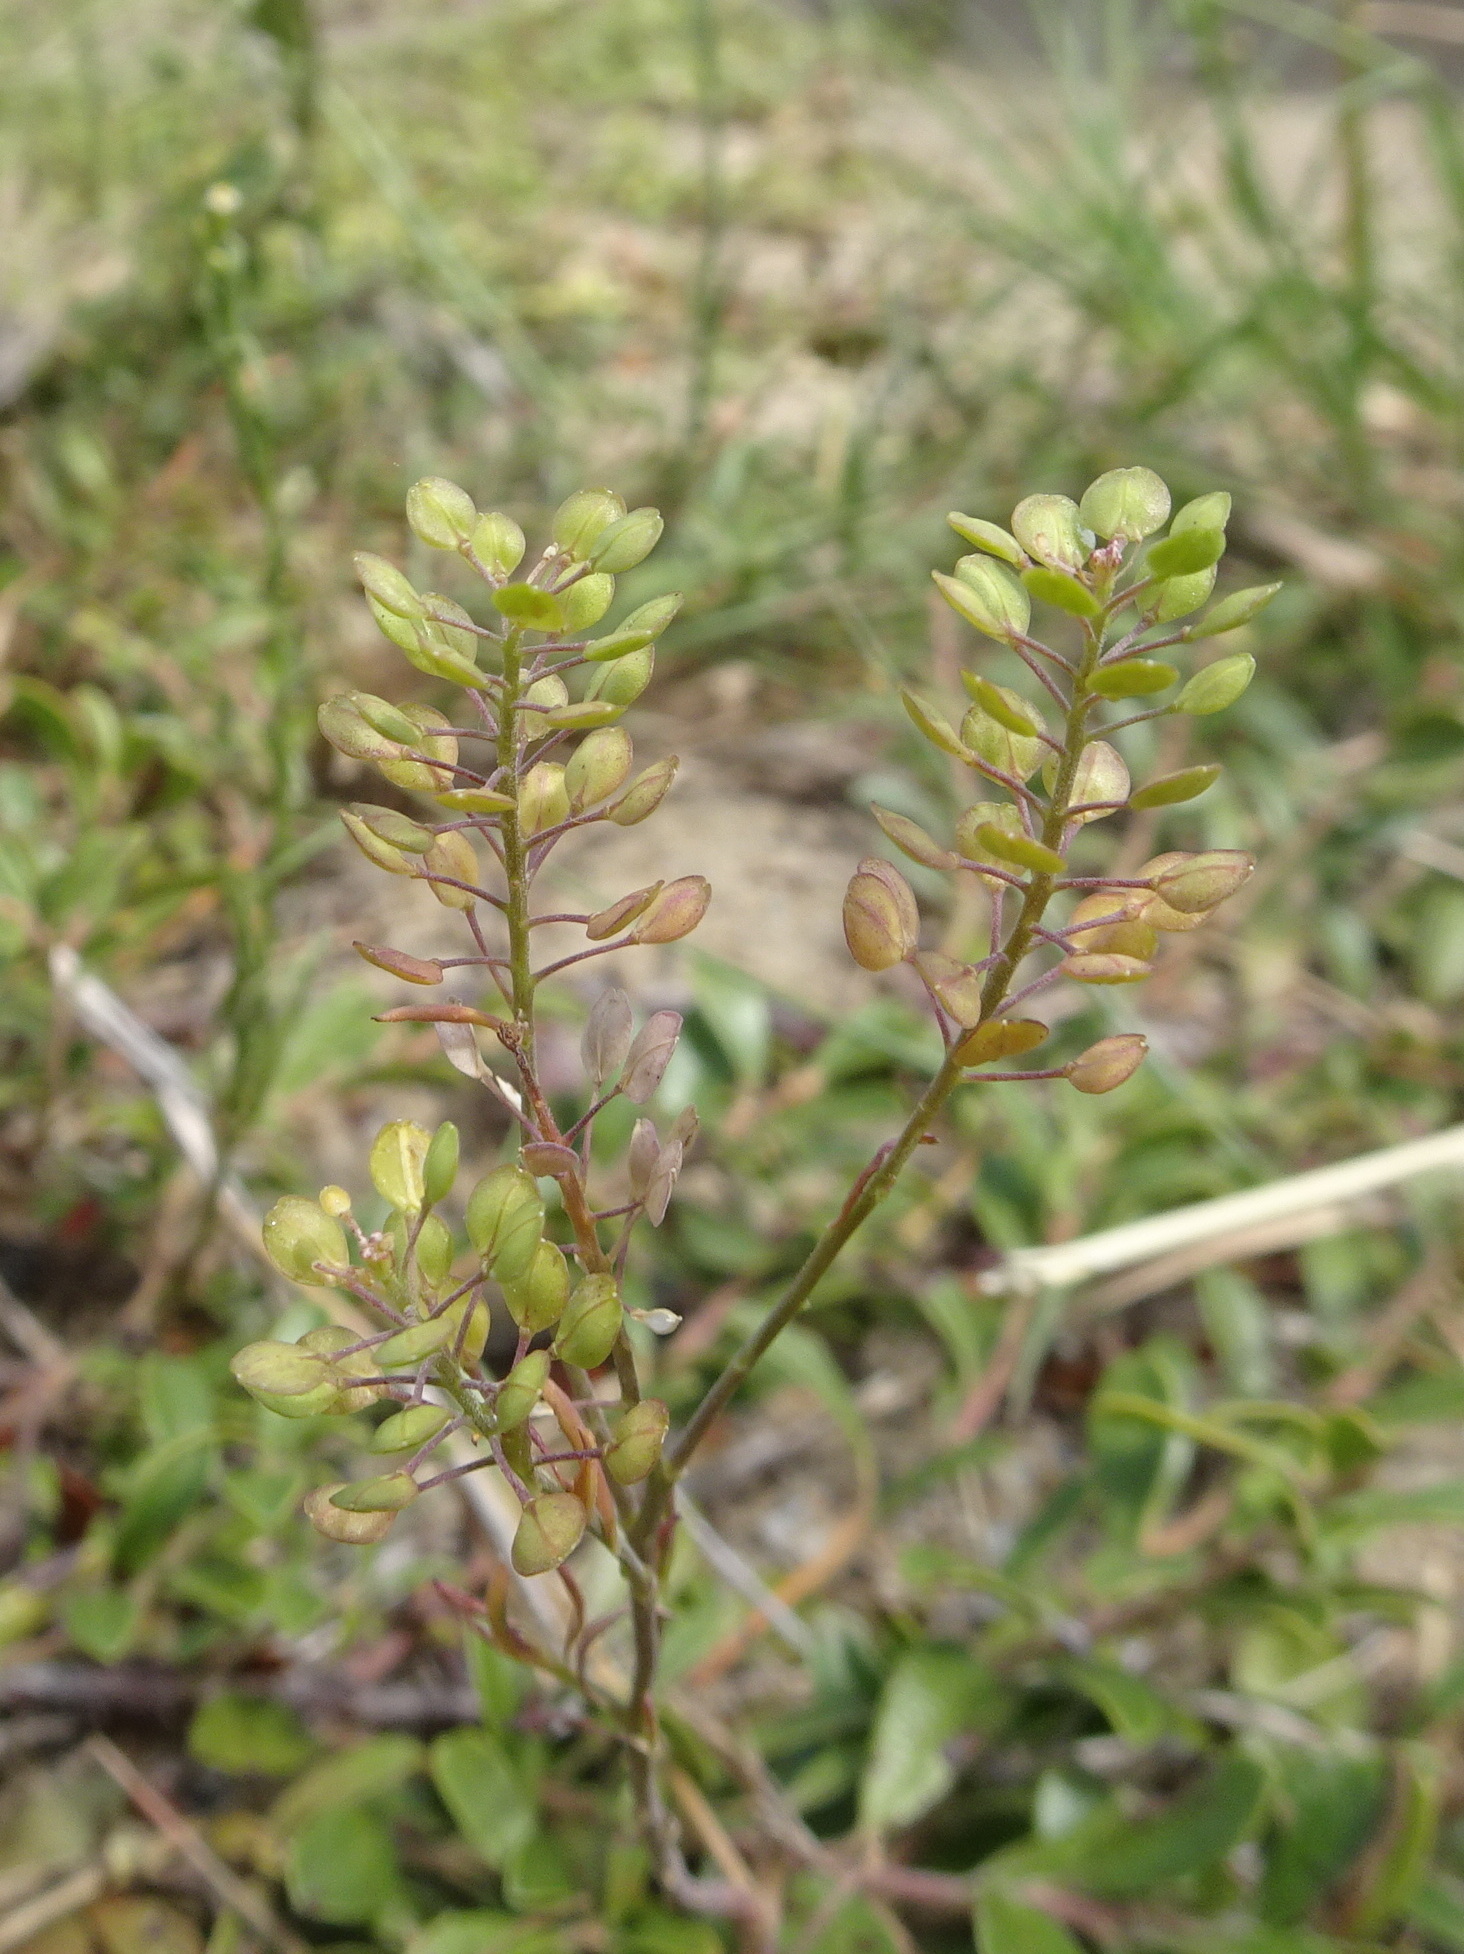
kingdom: Plantae
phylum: Tracheophyta
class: Magnoliopsida
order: Brassicales
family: Brassicaceae
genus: Lepidium
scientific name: Lepidium virginicum
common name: Least pepperwort
